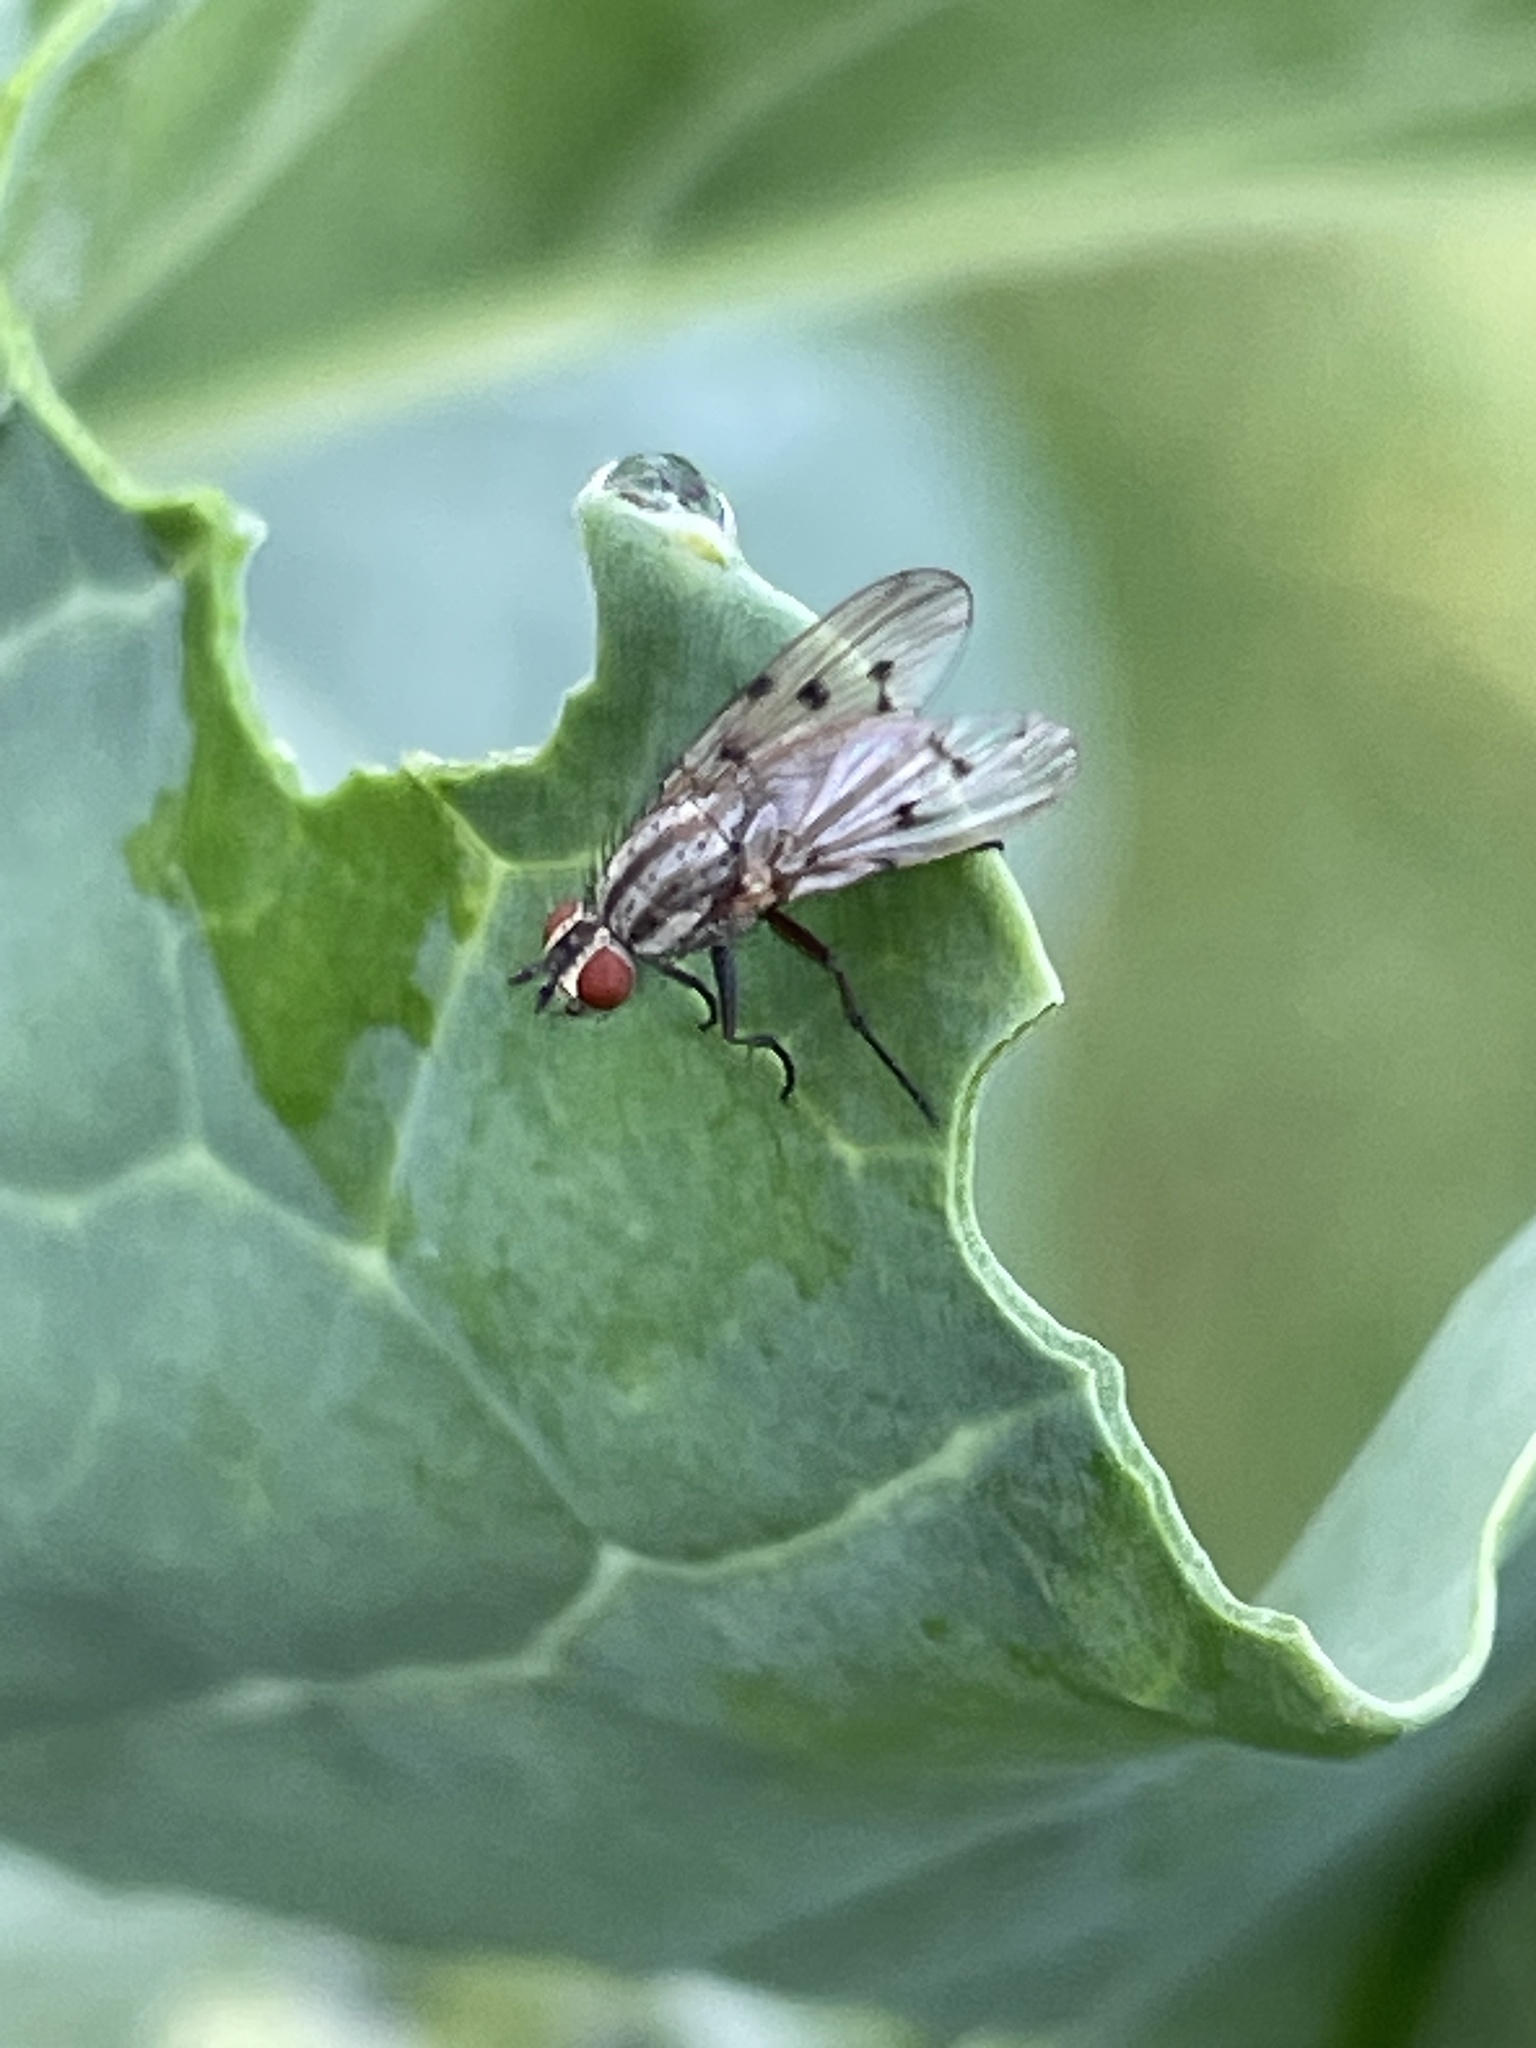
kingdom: Animalia
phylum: Arthropoda
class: Insecta
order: Diptera
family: Anthomyiidae
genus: Anthomyia
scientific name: Anthomyia punctipennis
